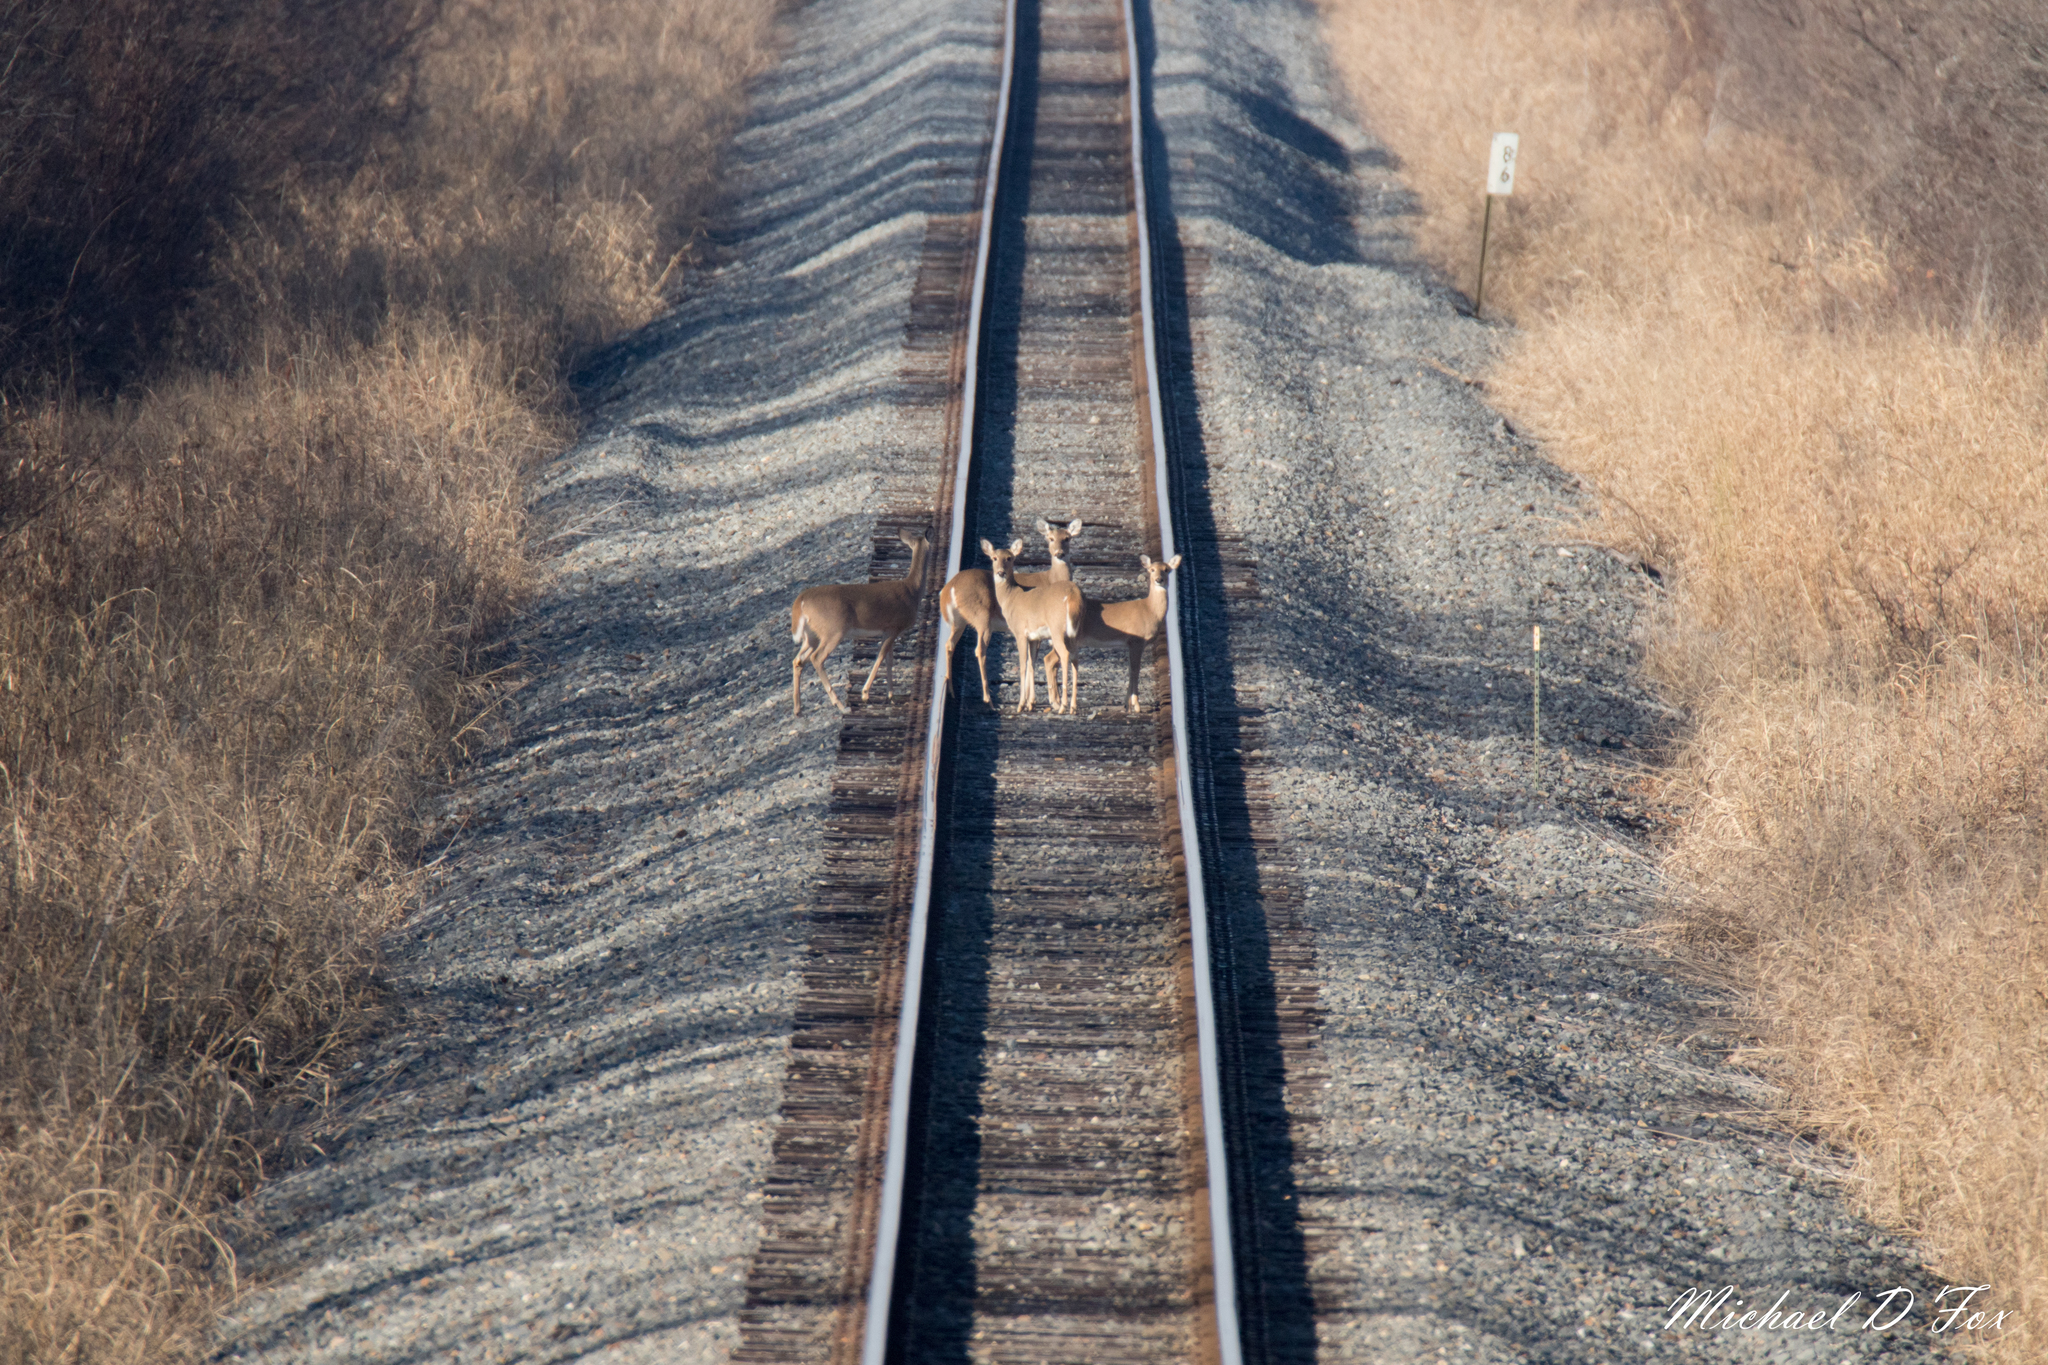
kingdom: Animalia
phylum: Chordata
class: Mammalia
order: Artiodactyla
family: Cervidae
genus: Odocoileus
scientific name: Odocoileus virginianus
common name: White-tailed deer
